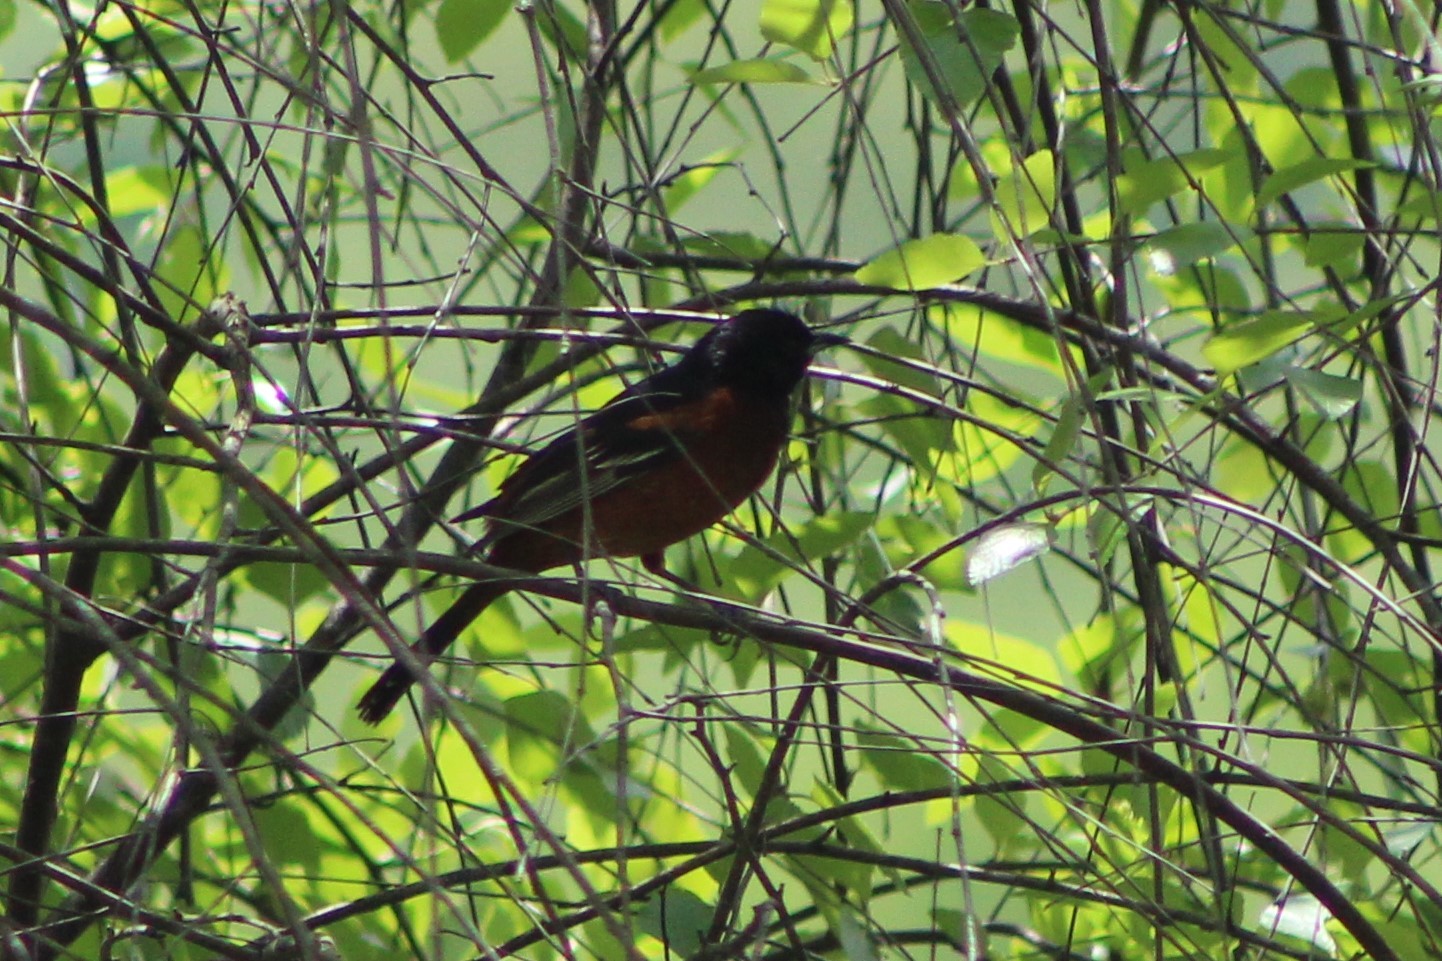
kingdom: Animalia
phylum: Chordata
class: Aves
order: Passeriformes
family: Icteridae
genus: Icterus
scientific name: Icterus spurius
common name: Orchard oriole
